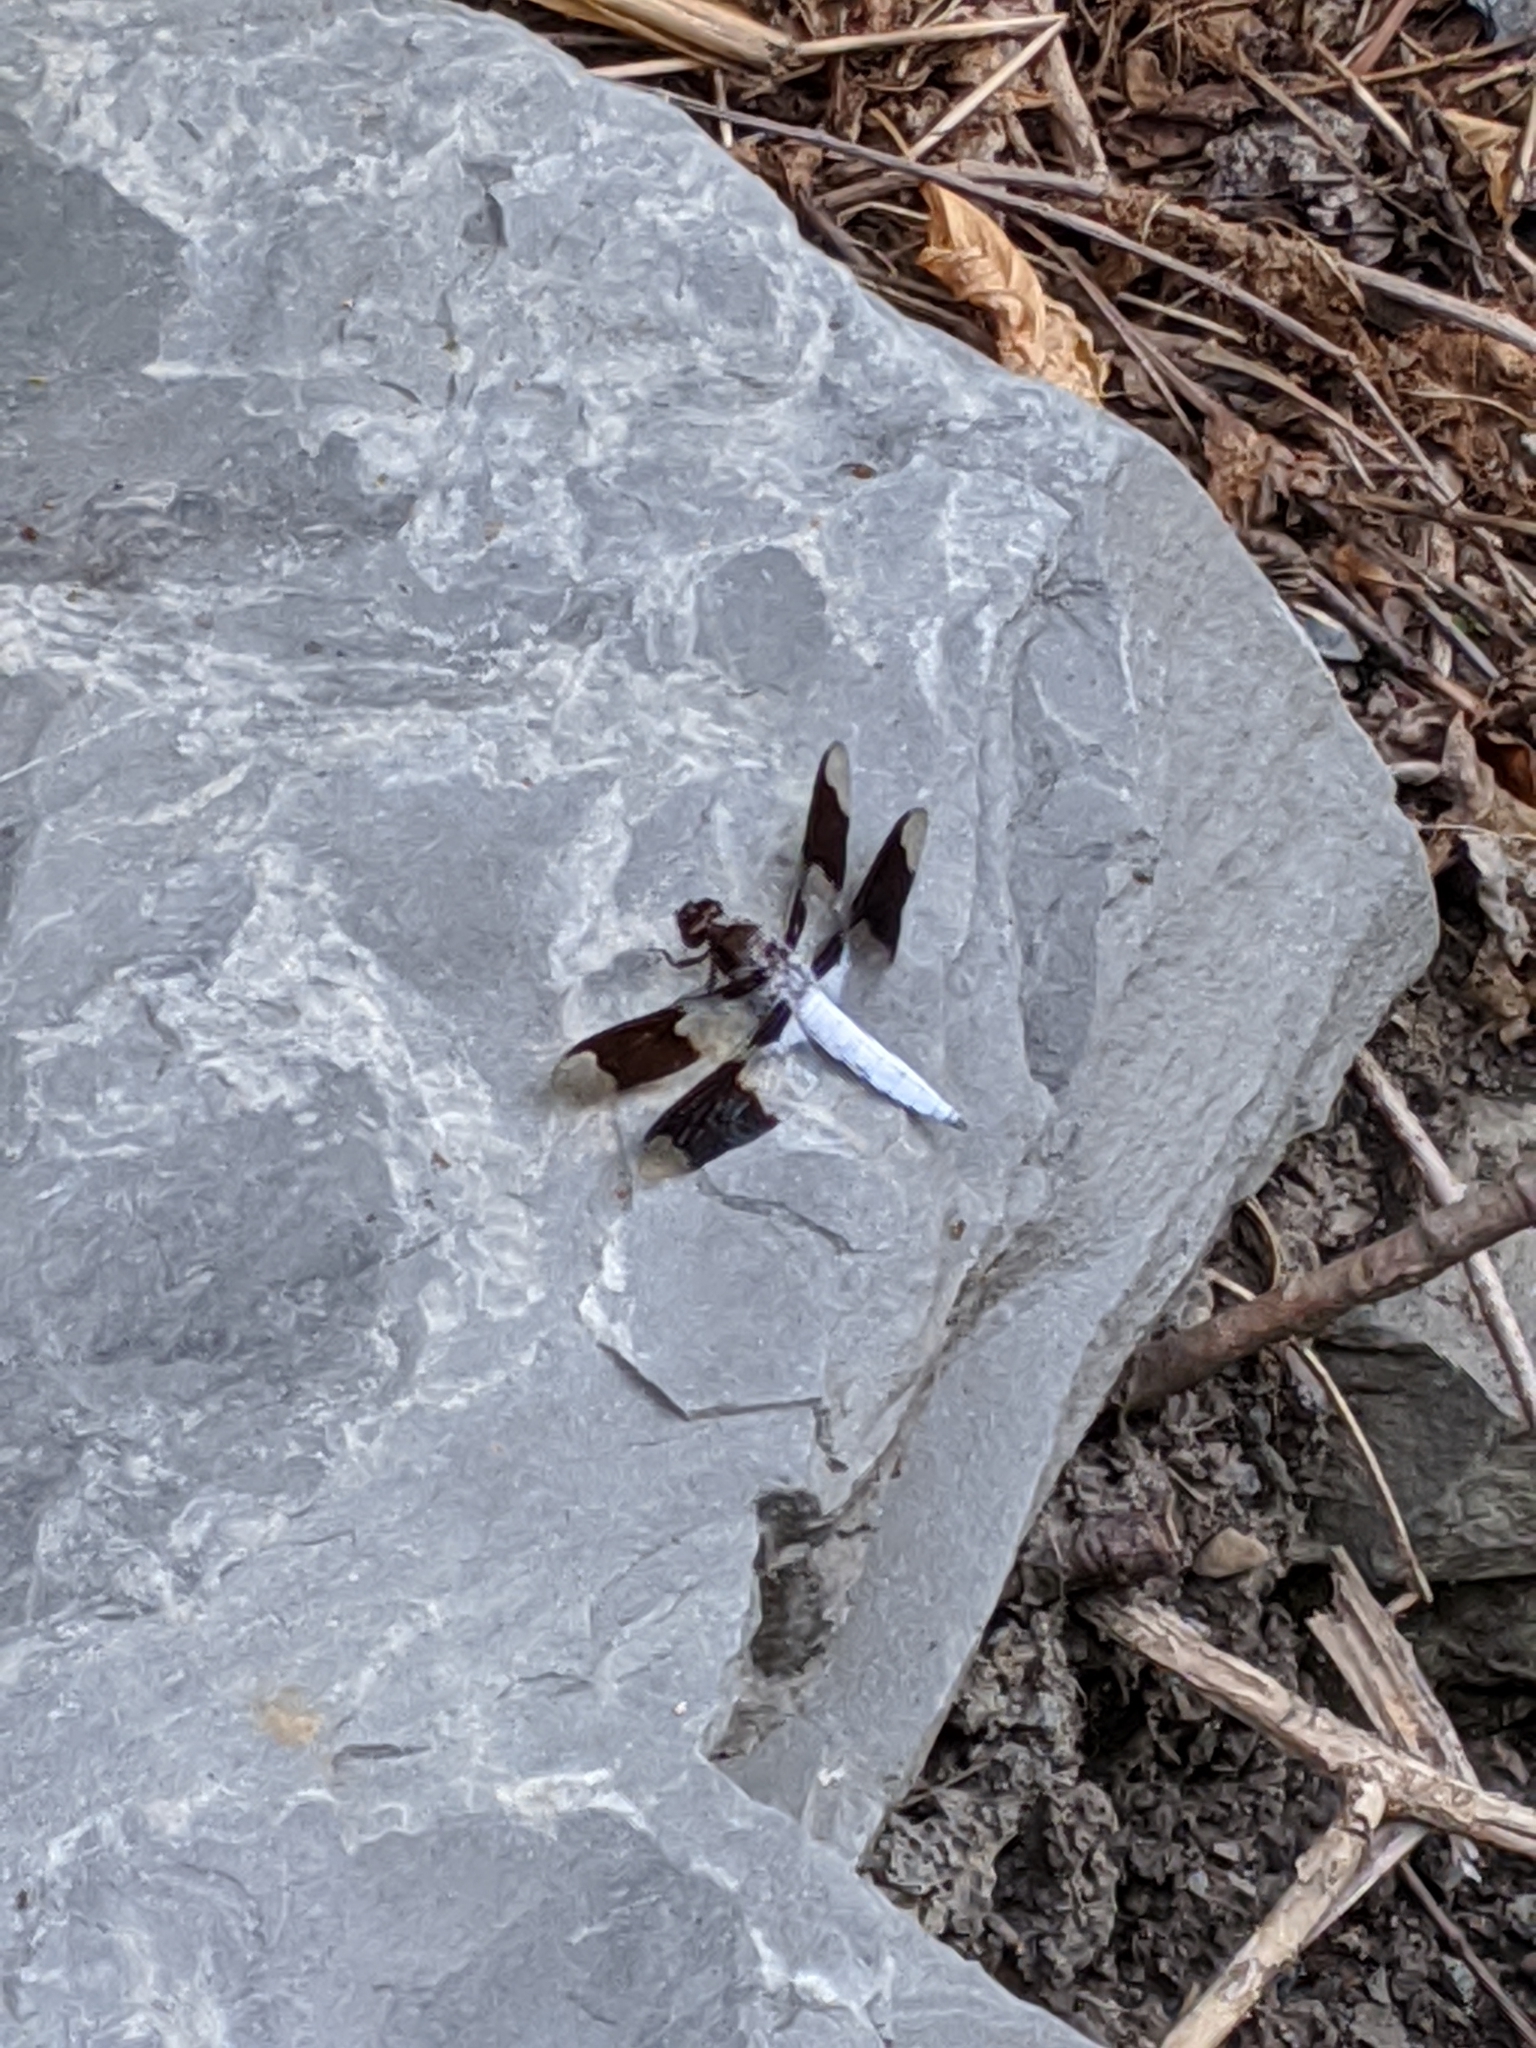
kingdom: Animalia
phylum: Arthropoda
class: Insecta
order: Odonata
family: Libellulidae
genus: Plathemis
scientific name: Plathemis lydia
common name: Common whitetail
